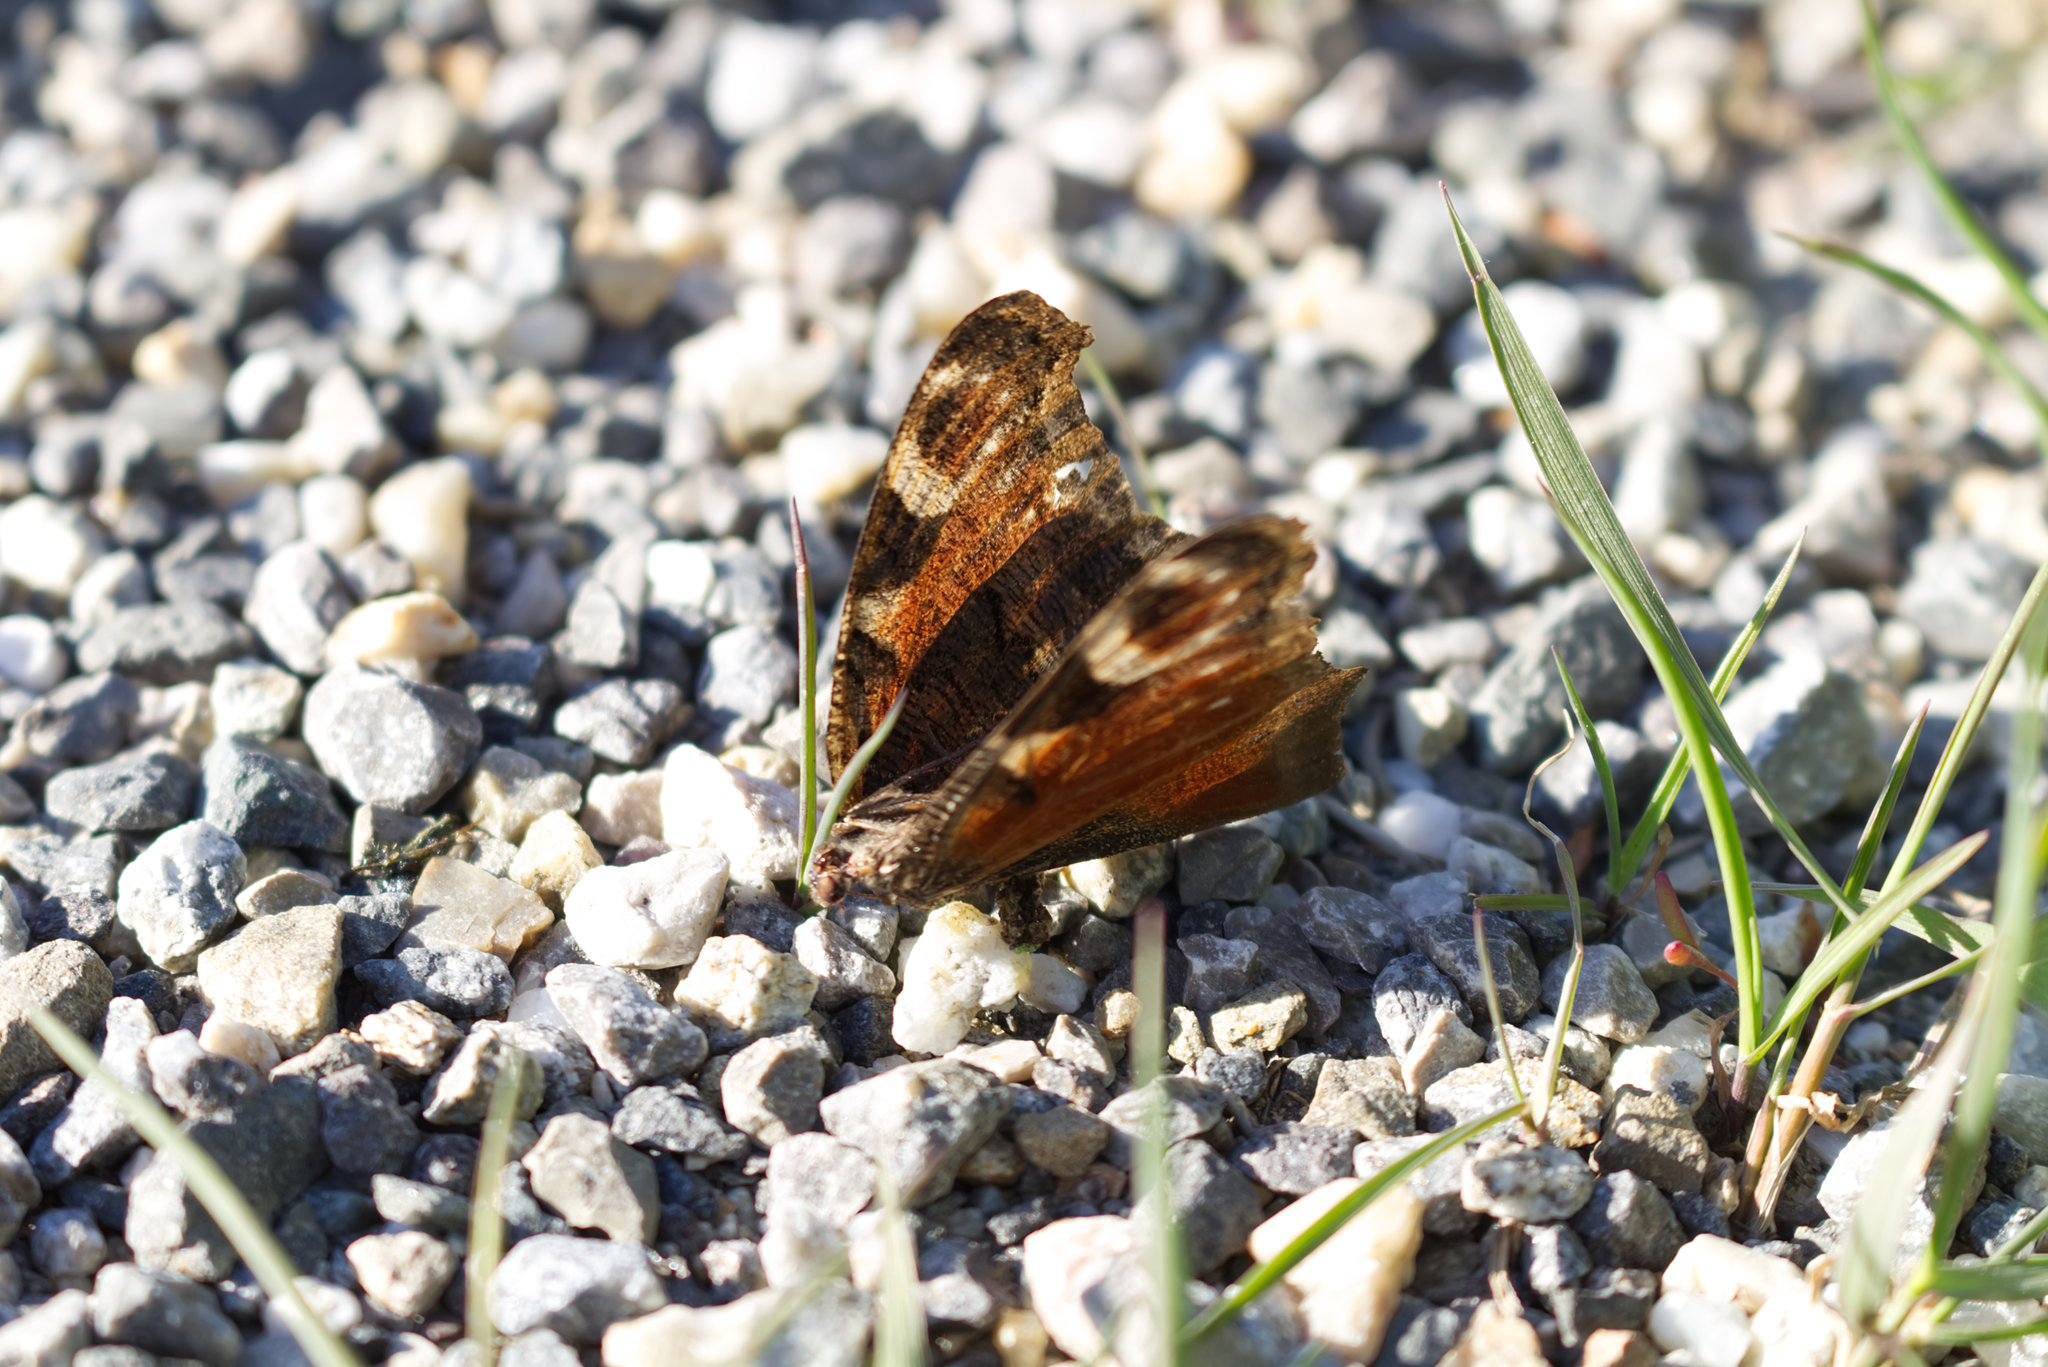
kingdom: Animalia
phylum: Arthropoda
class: Insecta
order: Lepidoptera
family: Nymphalidae
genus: Aglais
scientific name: Aglais io
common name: Peacock
